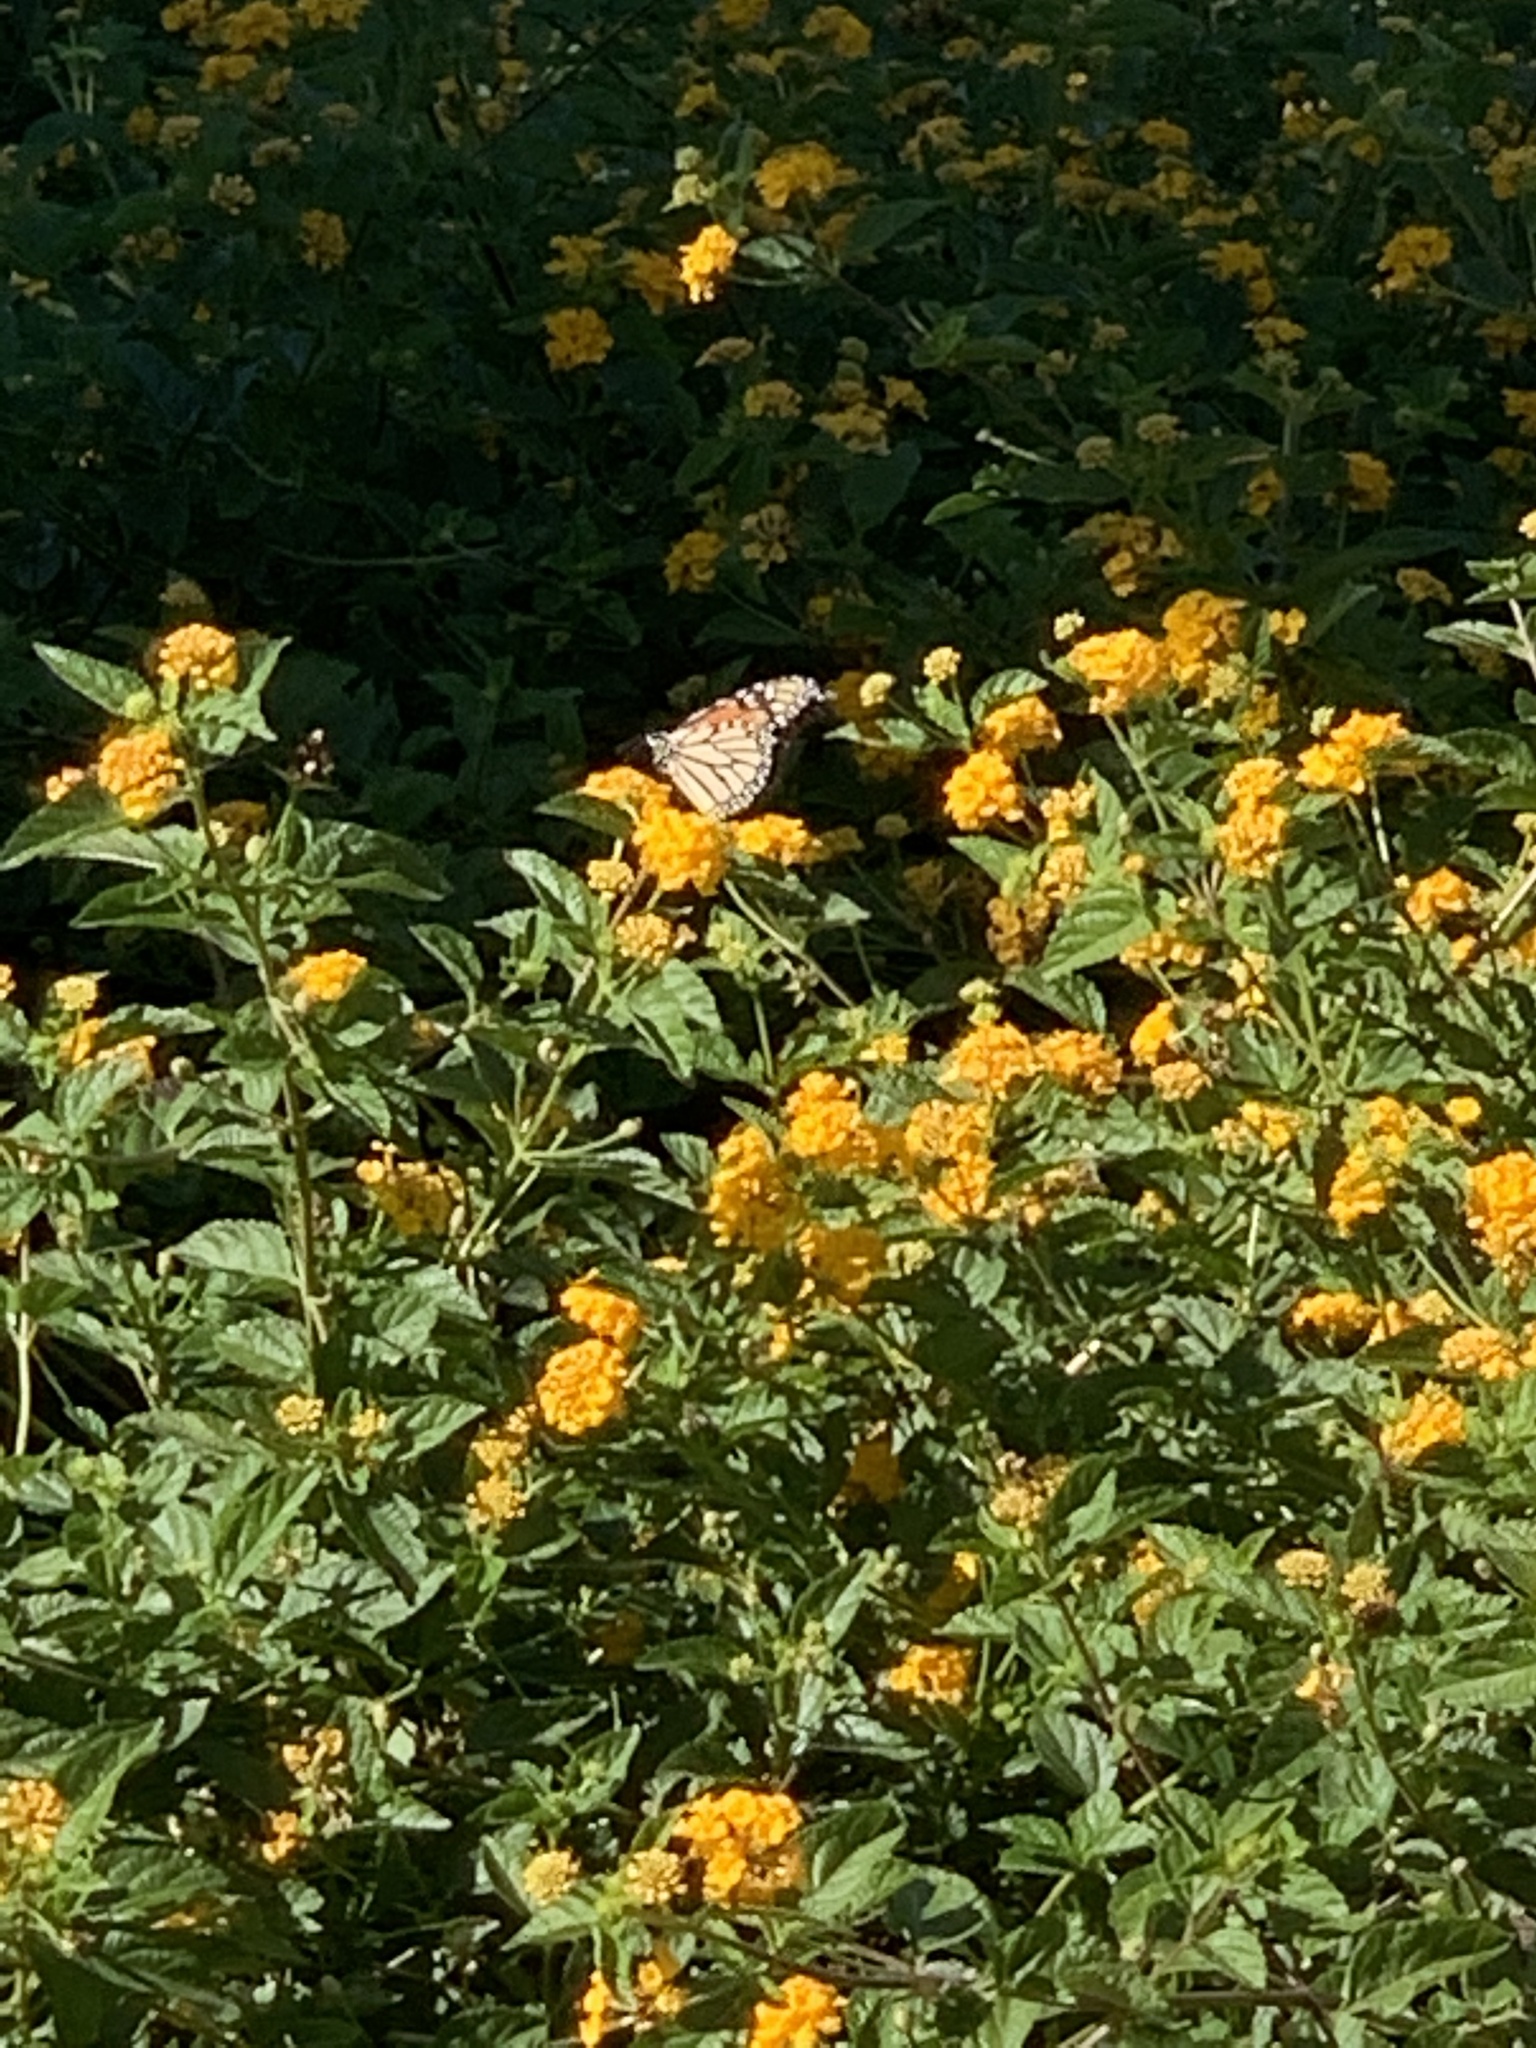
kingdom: Animalia
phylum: Arthropoda
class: Insecta
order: Lepidoptera
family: Nymphalidae
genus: Danaus
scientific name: Danaus plexippus
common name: Monarch
